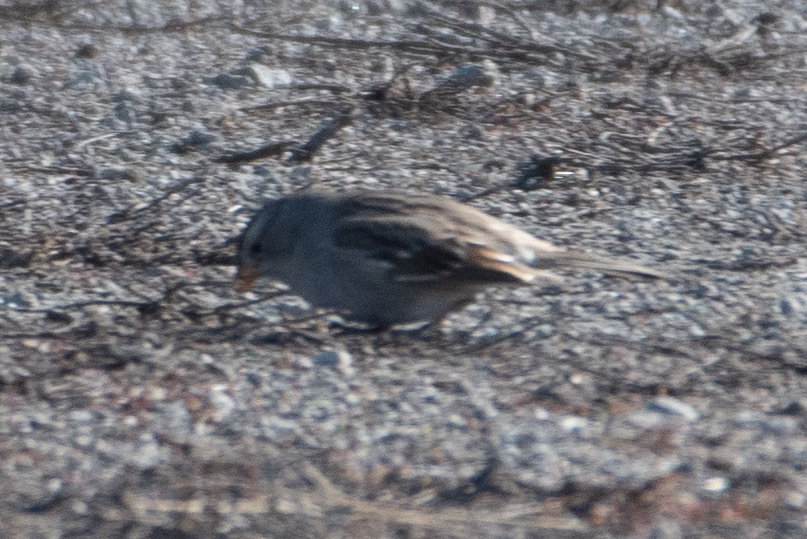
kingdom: Animalia
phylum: Chordata
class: Aves
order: Passeriformes
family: Passerellidae
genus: Zonotrichia
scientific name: Zonotrichia leucophrys
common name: White-crowned sparrow
